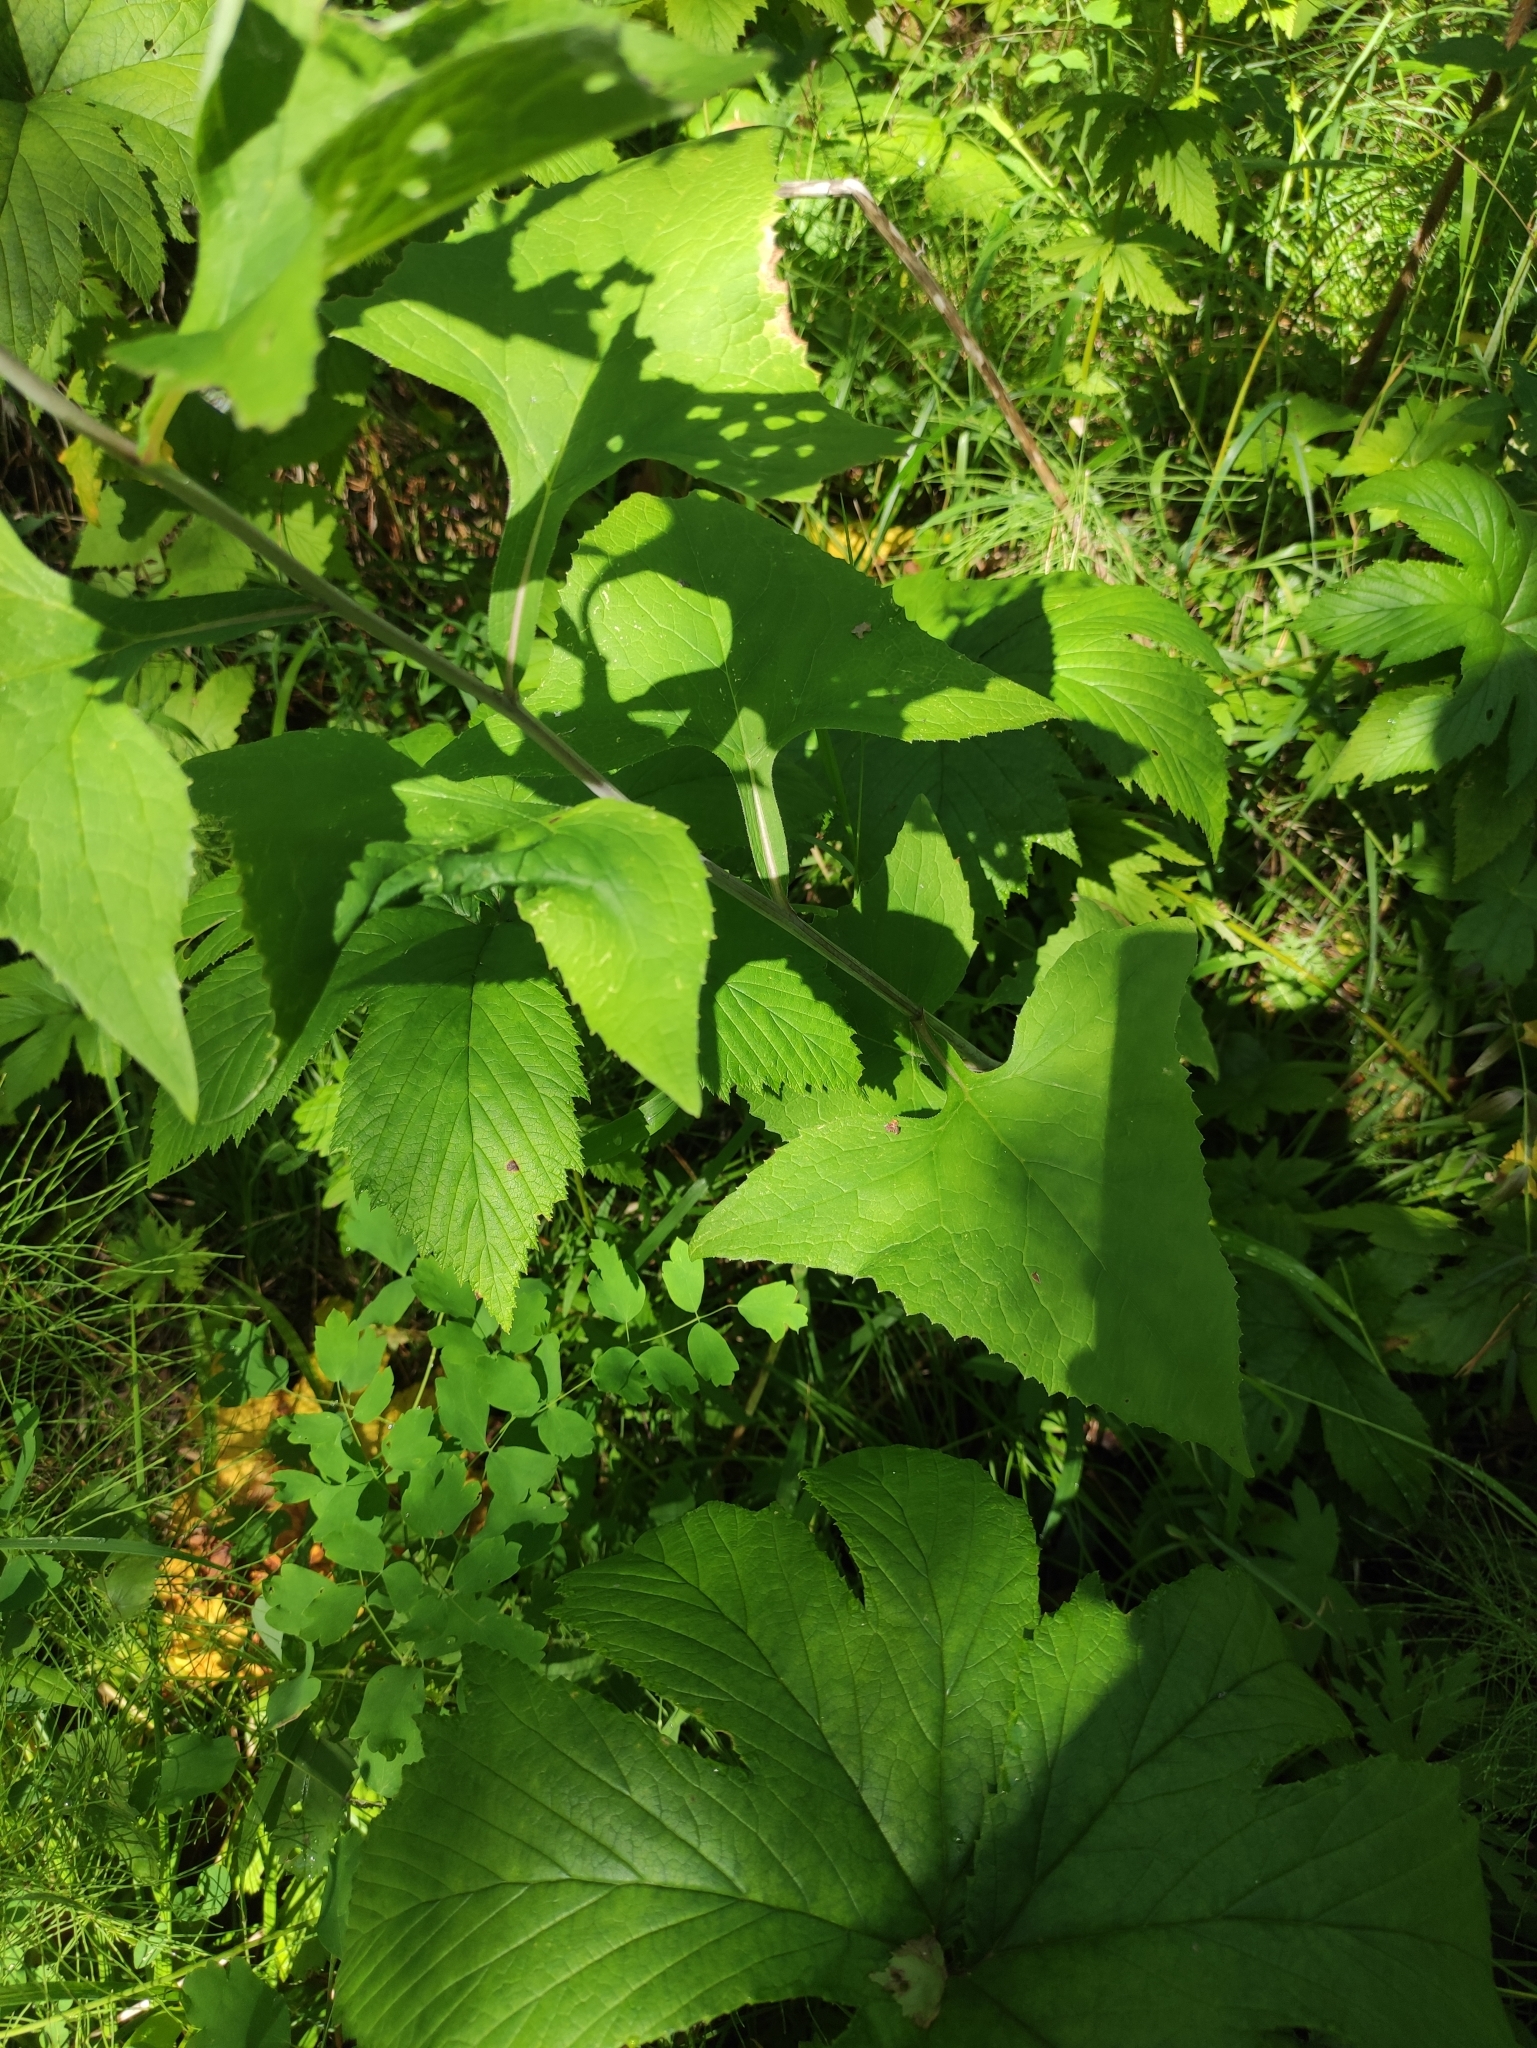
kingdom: Plantae
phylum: Tracheophyta
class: Magnoliopsida
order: Asterales
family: Asteraceae
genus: Parasenecio
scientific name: Parasenecio hastatus
